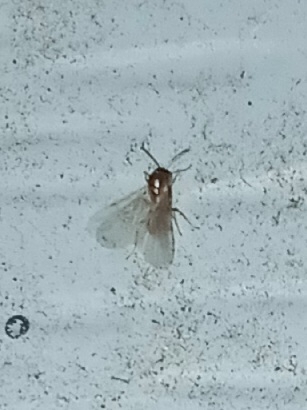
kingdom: Animalia
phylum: Arthropoda
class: Insecta
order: Hymenoptera
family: Formicidae
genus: Brachymyrmex
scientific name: Brachymyrmex patagonicus
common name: Dark rover ant
